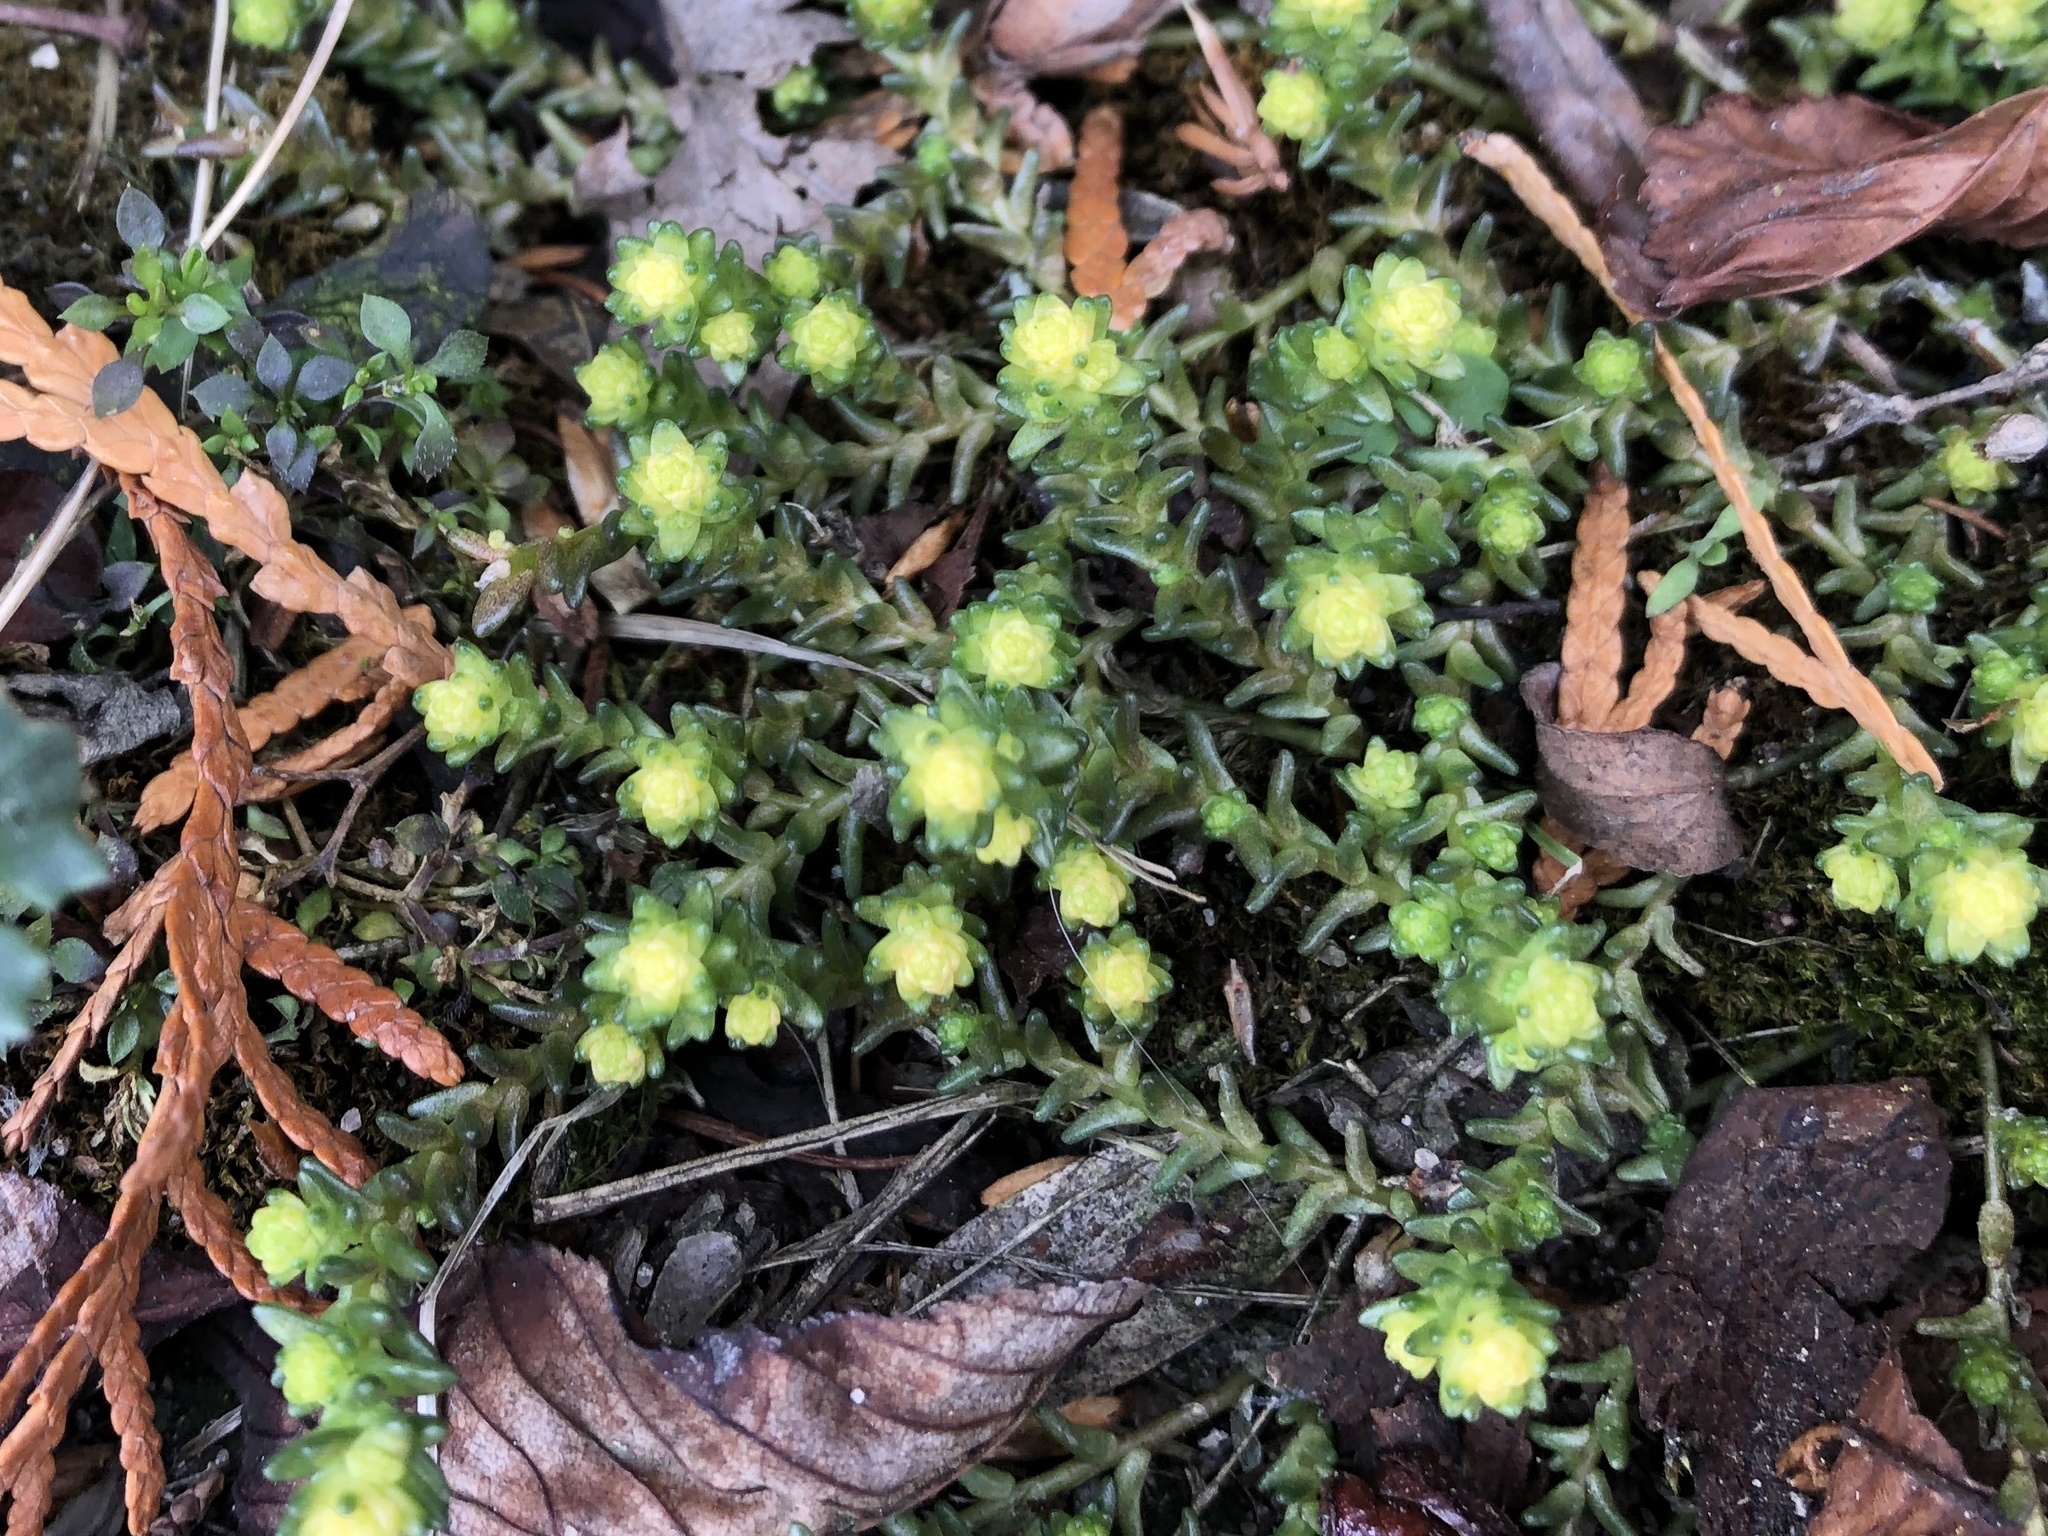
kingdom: Plantae
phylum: Tracheophyta
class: Magnoliopsida
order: Saxifragales
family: Crassulaceae
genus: Sedum
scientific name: Sedum acre
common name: Biting stonecrop
